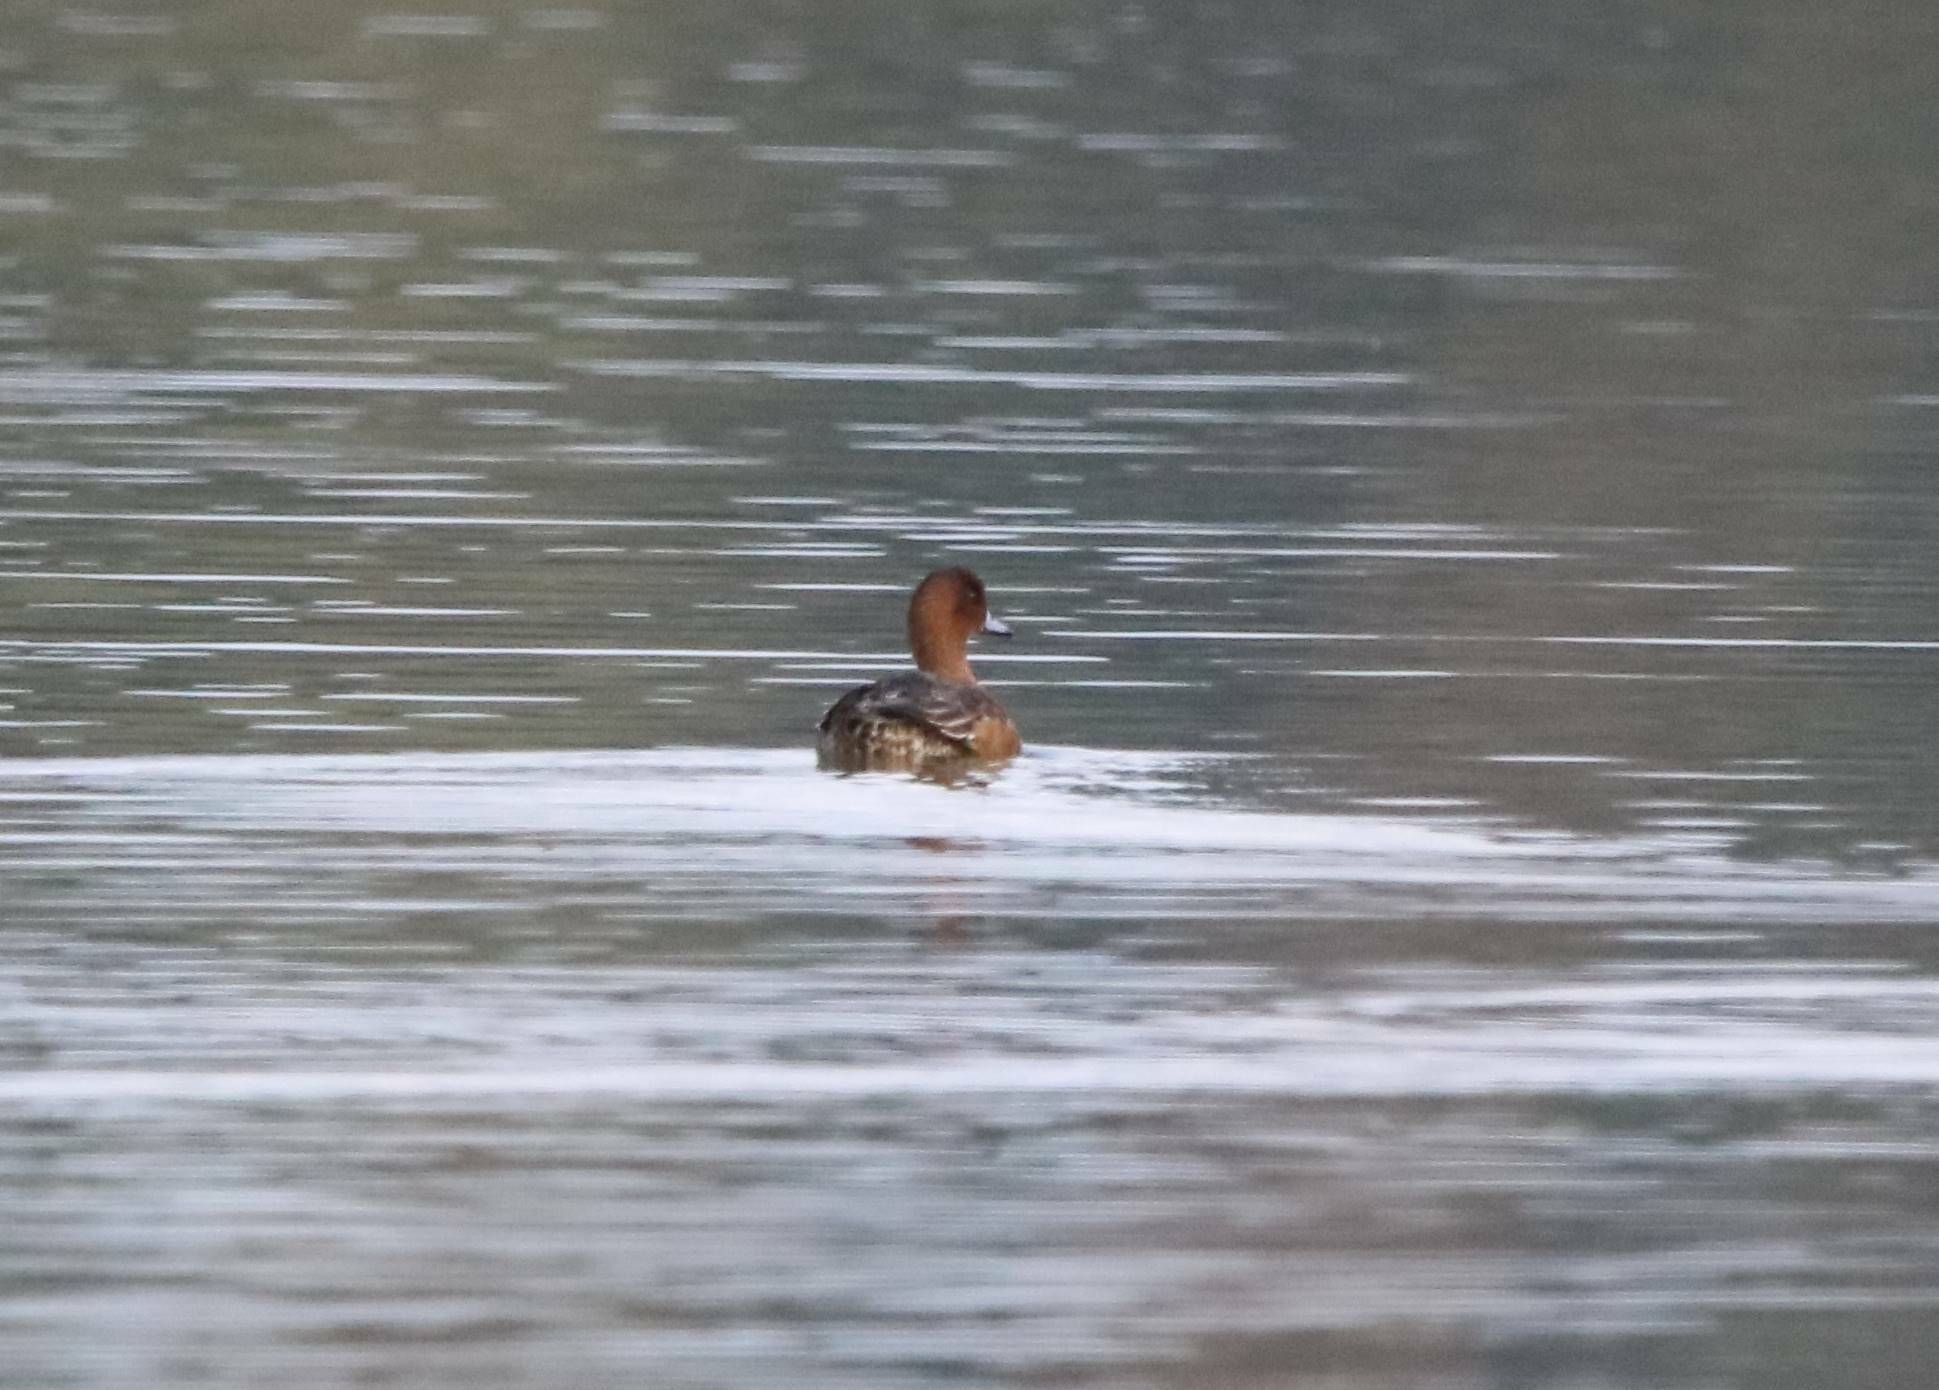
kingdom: Animalia
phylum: Chordata
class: Aves
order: Anseriformes
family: Anatidae
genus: Mareca
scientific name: Mareca penelope
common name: Eurasian wigeon
